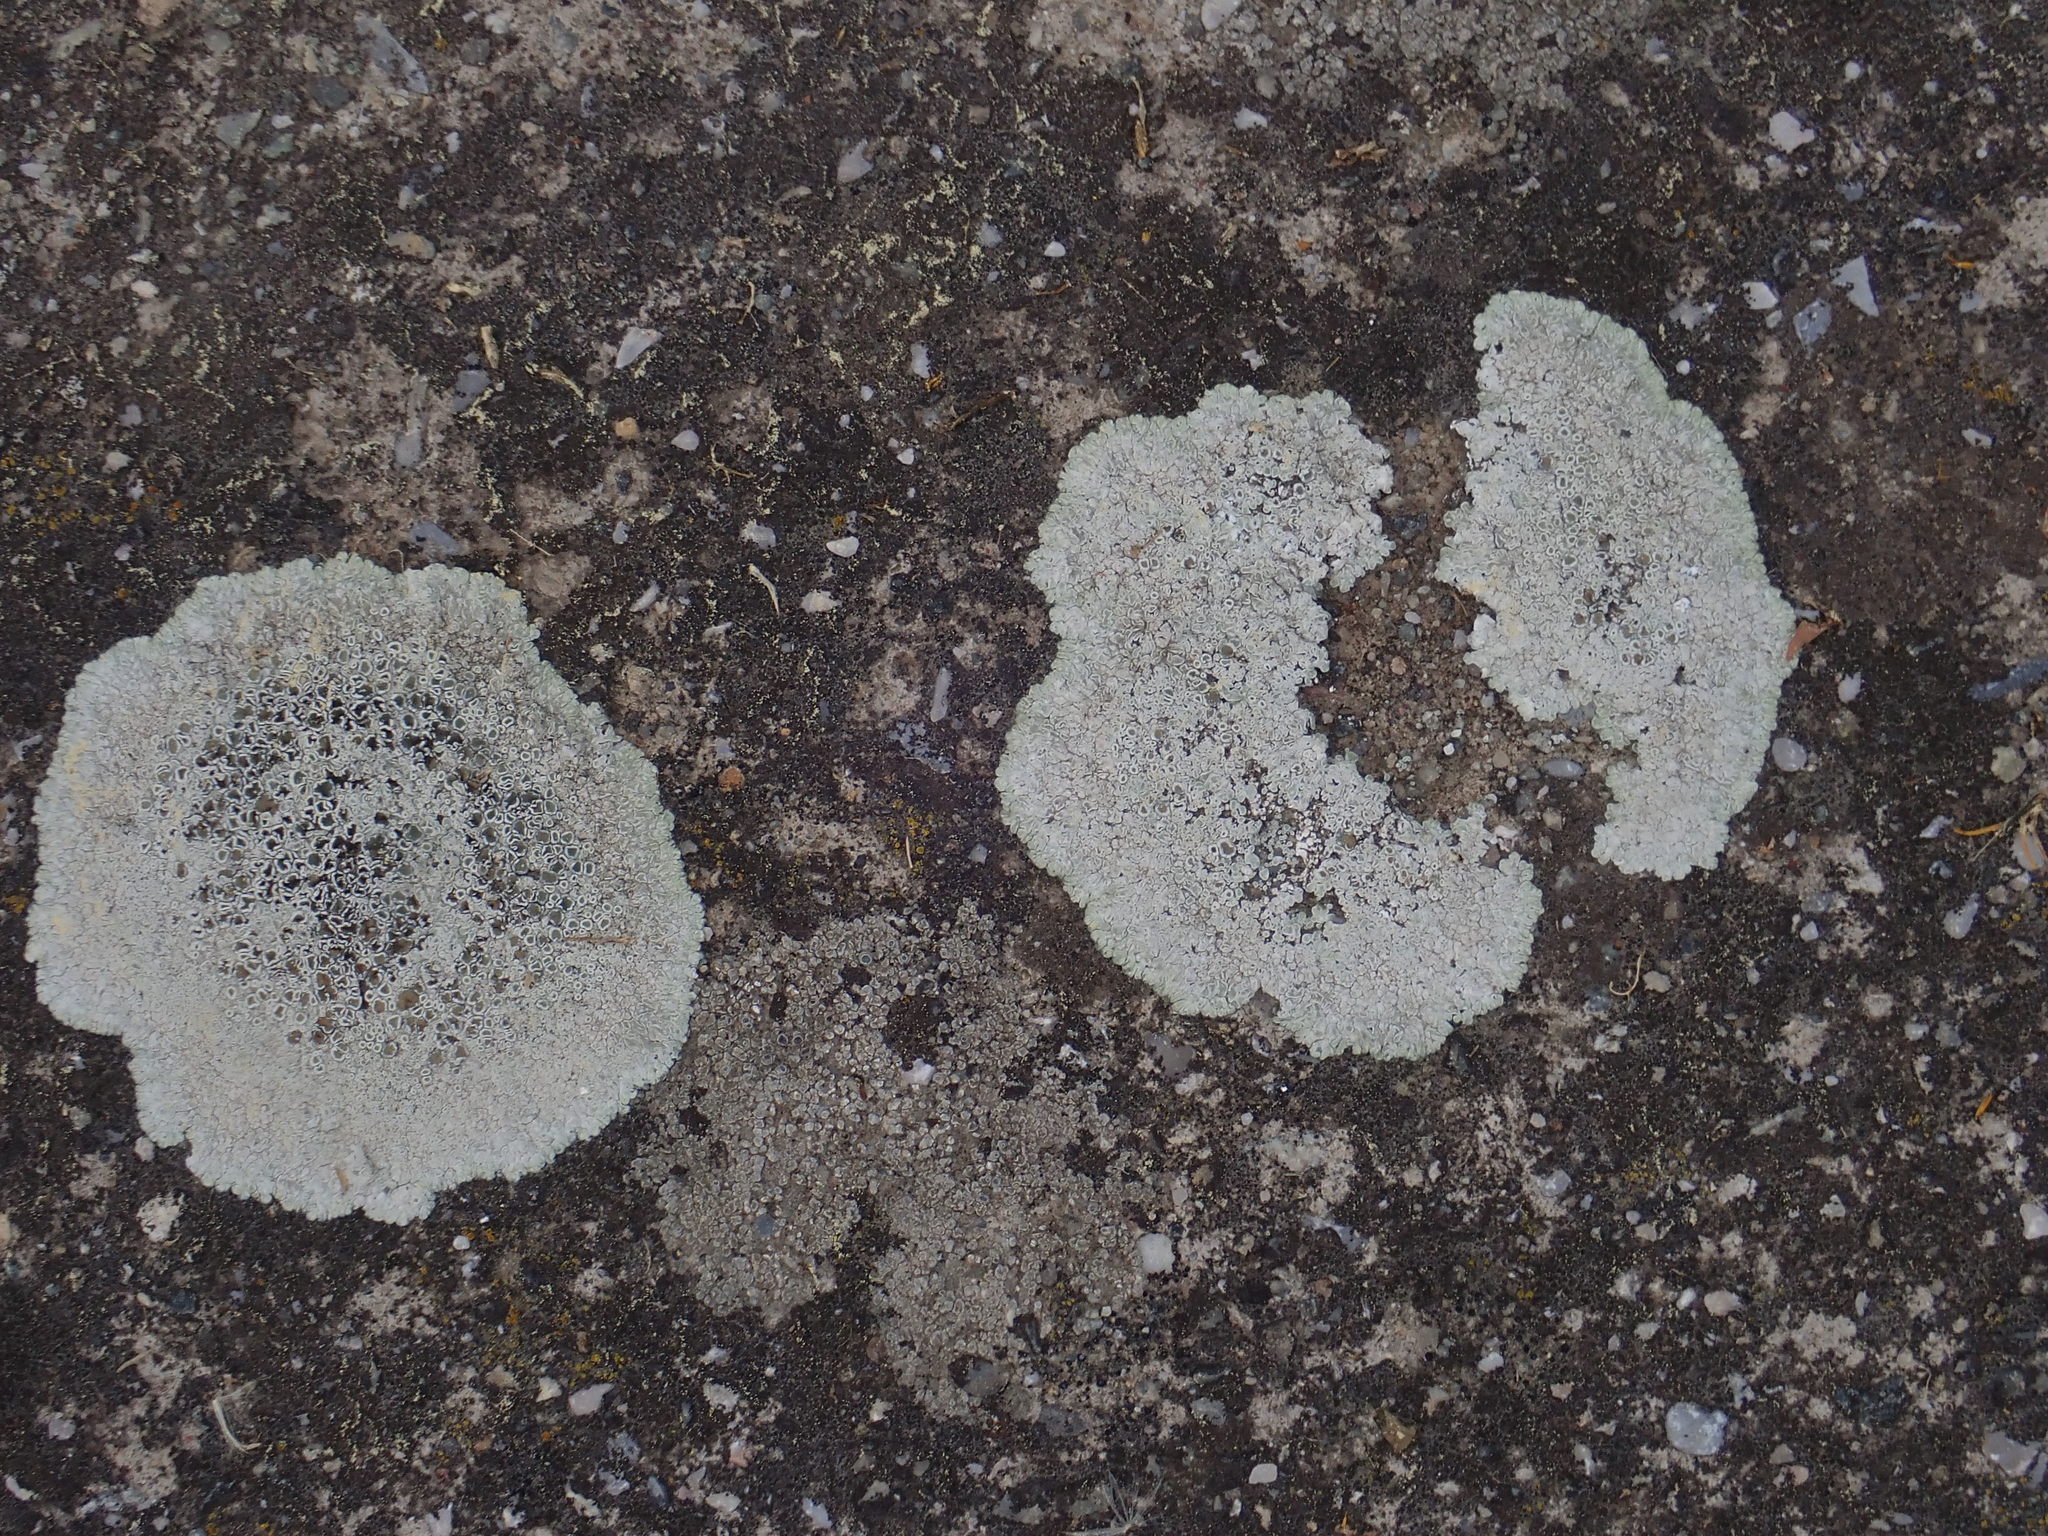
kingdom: Fungi
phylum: Ascomycota
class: Lecanoromycetes
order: Lecanorales
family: Lecanoraceae
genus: Protoparmeliopsis
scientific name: Protoparmeliopsis muralis
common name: Stonewall rim lichen
